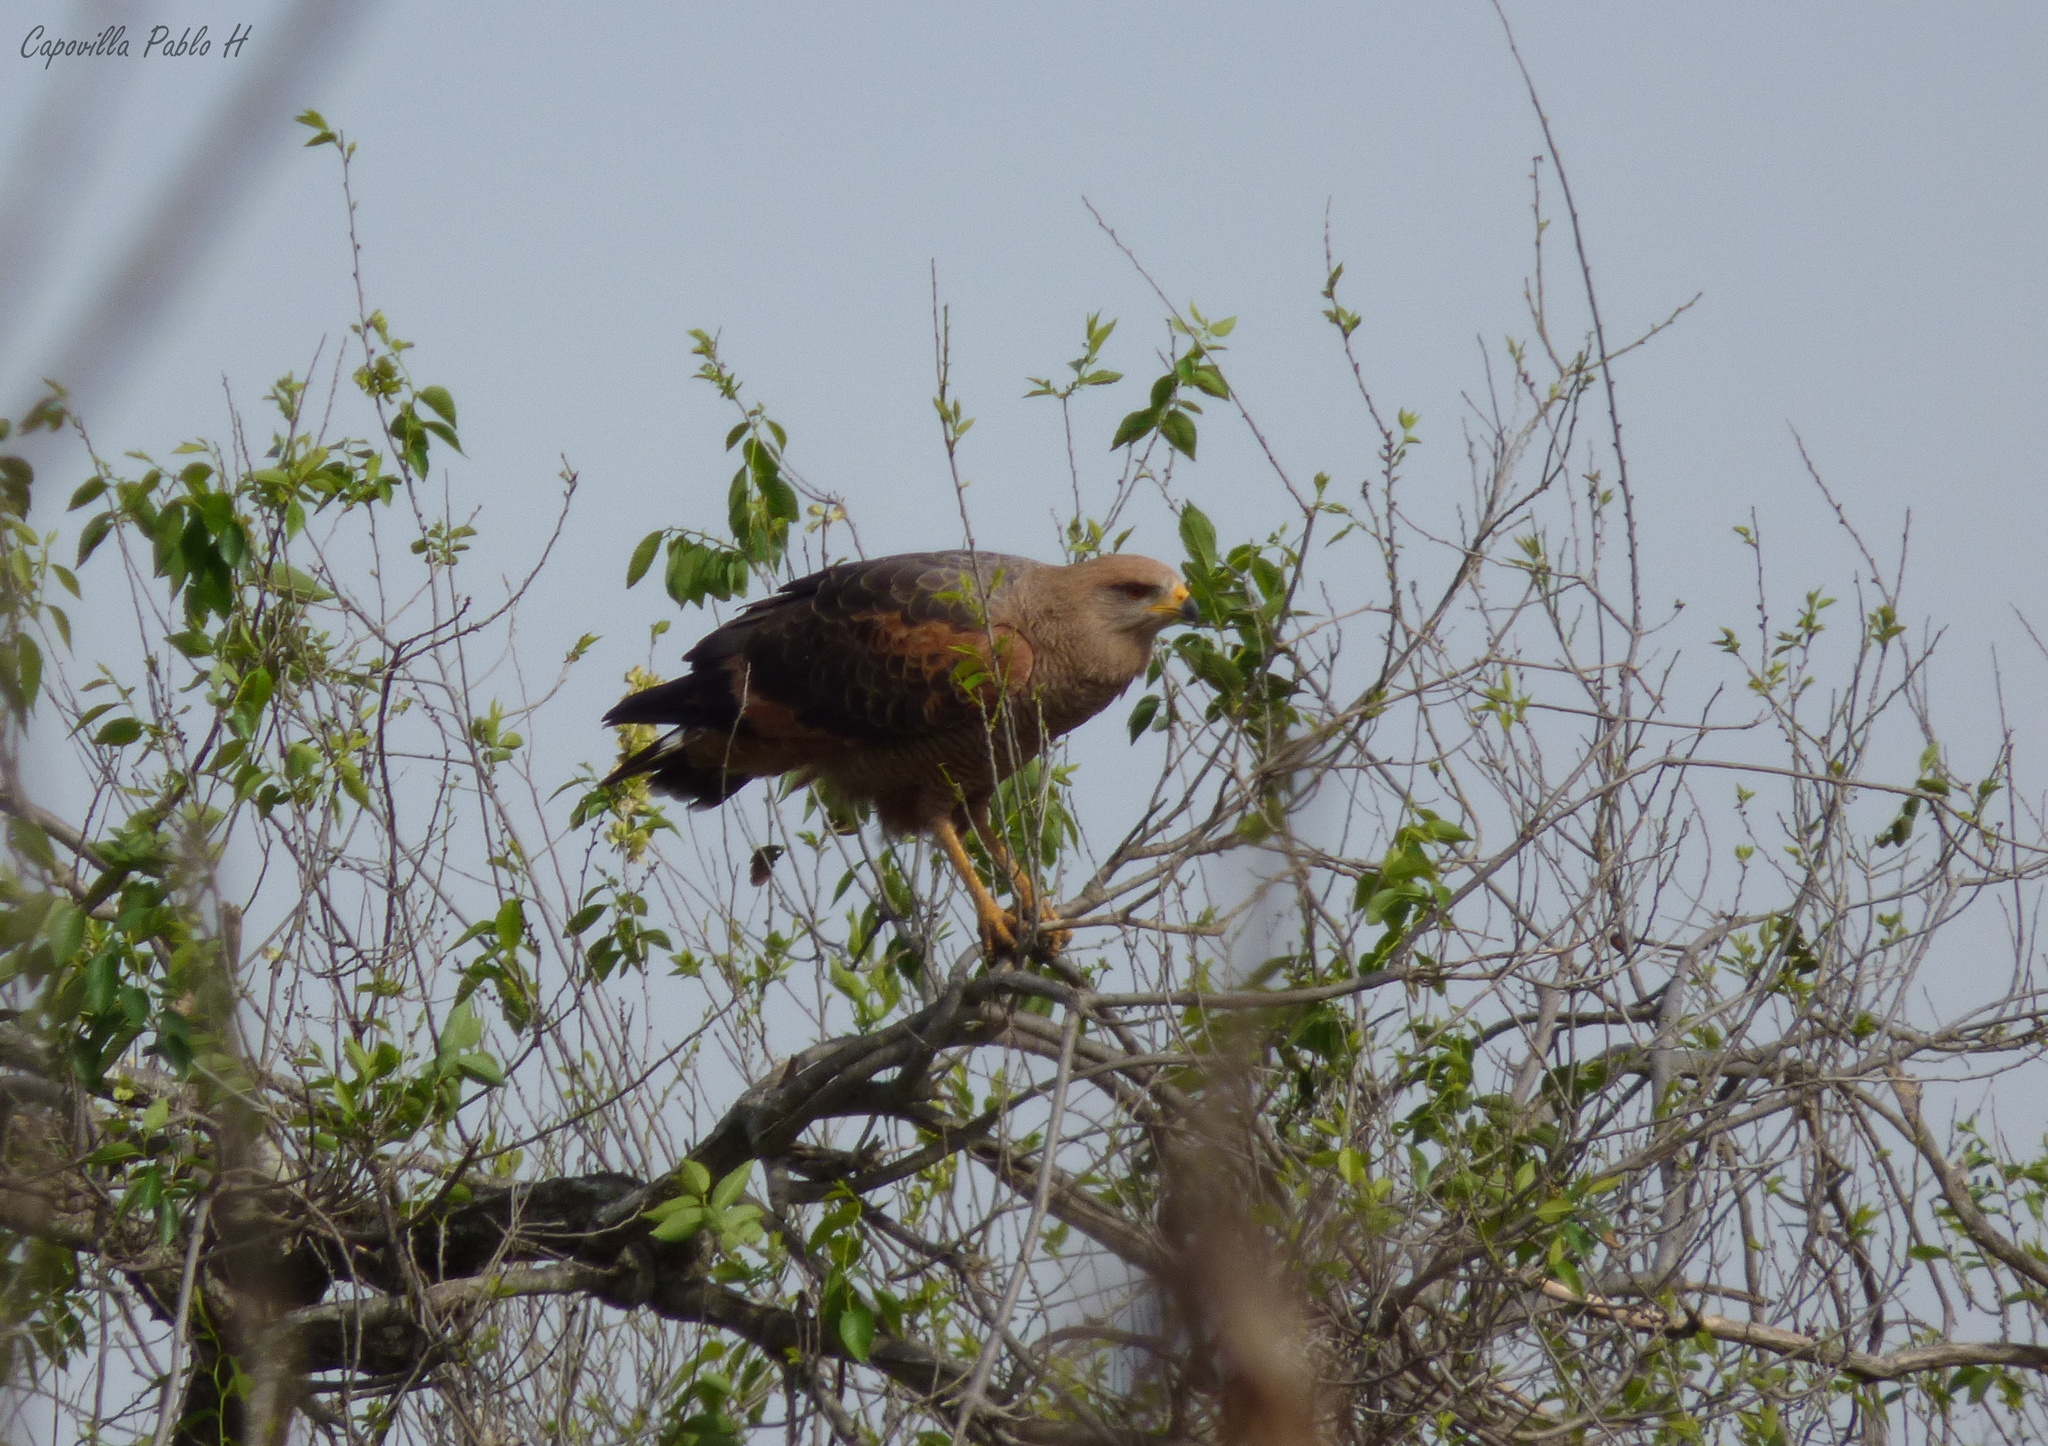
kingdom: Animalia
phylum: Chordata
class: Aves
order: Accipitriformes
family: Accipitridae
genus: Buteogallus
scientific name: Buteogallus meridionalis
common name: Savanna hawk
